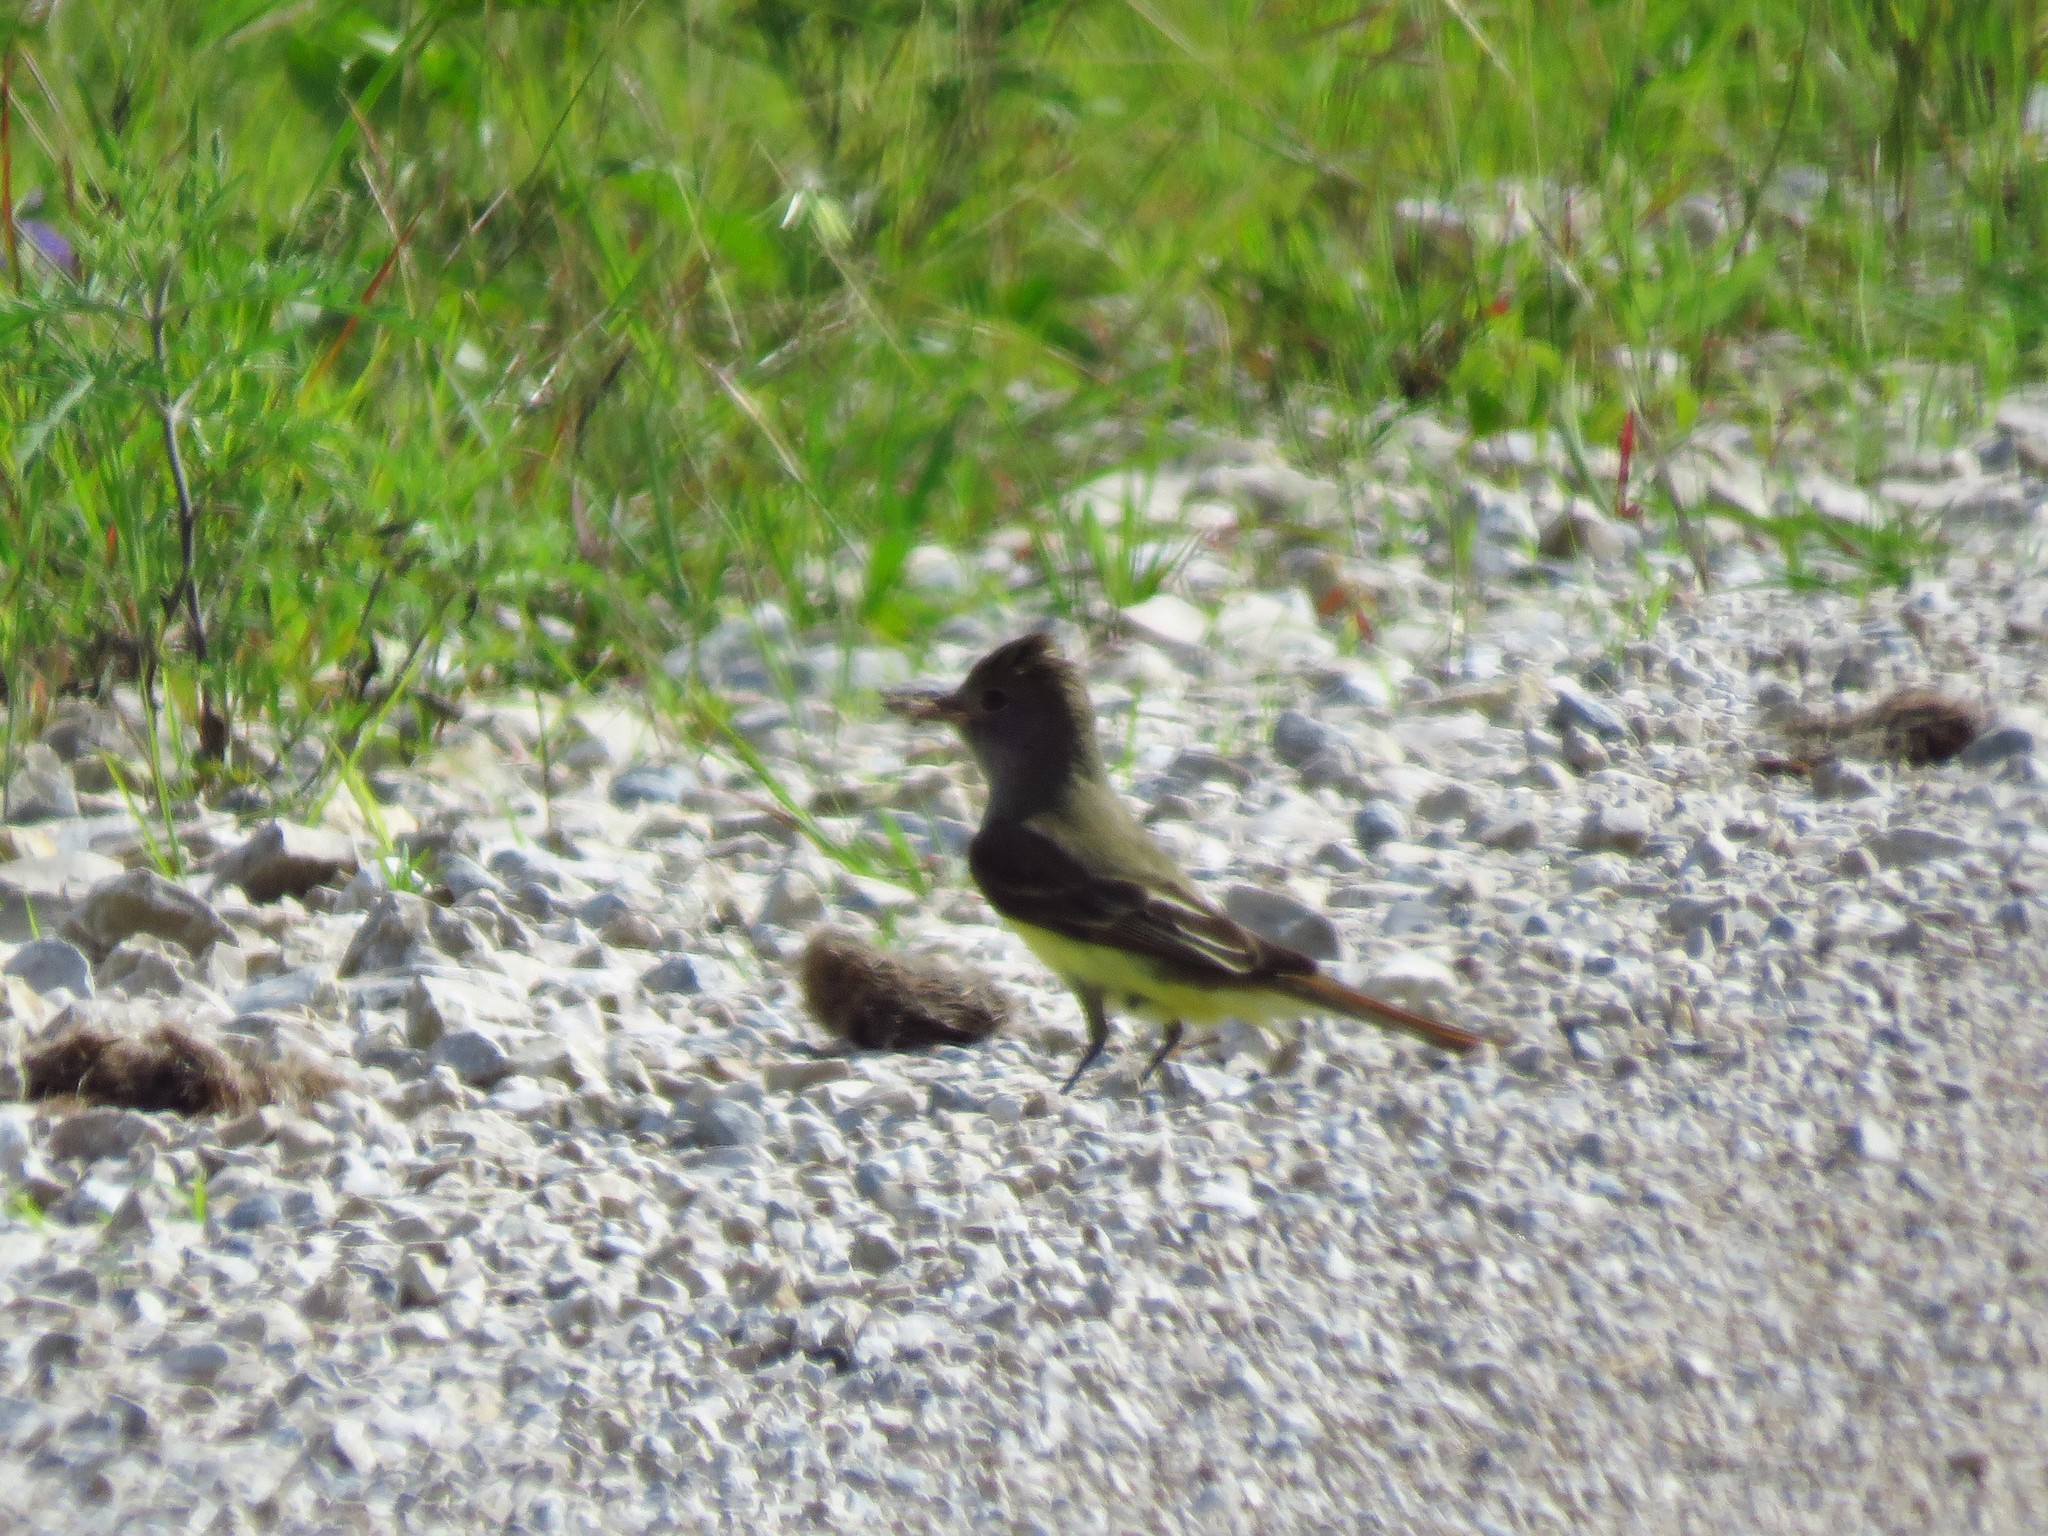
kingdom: Animalia
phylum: Chordata
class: Aves
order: Passeriformes
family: Tyrannidae
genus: Myiarchus
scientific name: Myiarchus crinitus
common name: Great crested flycatcher
